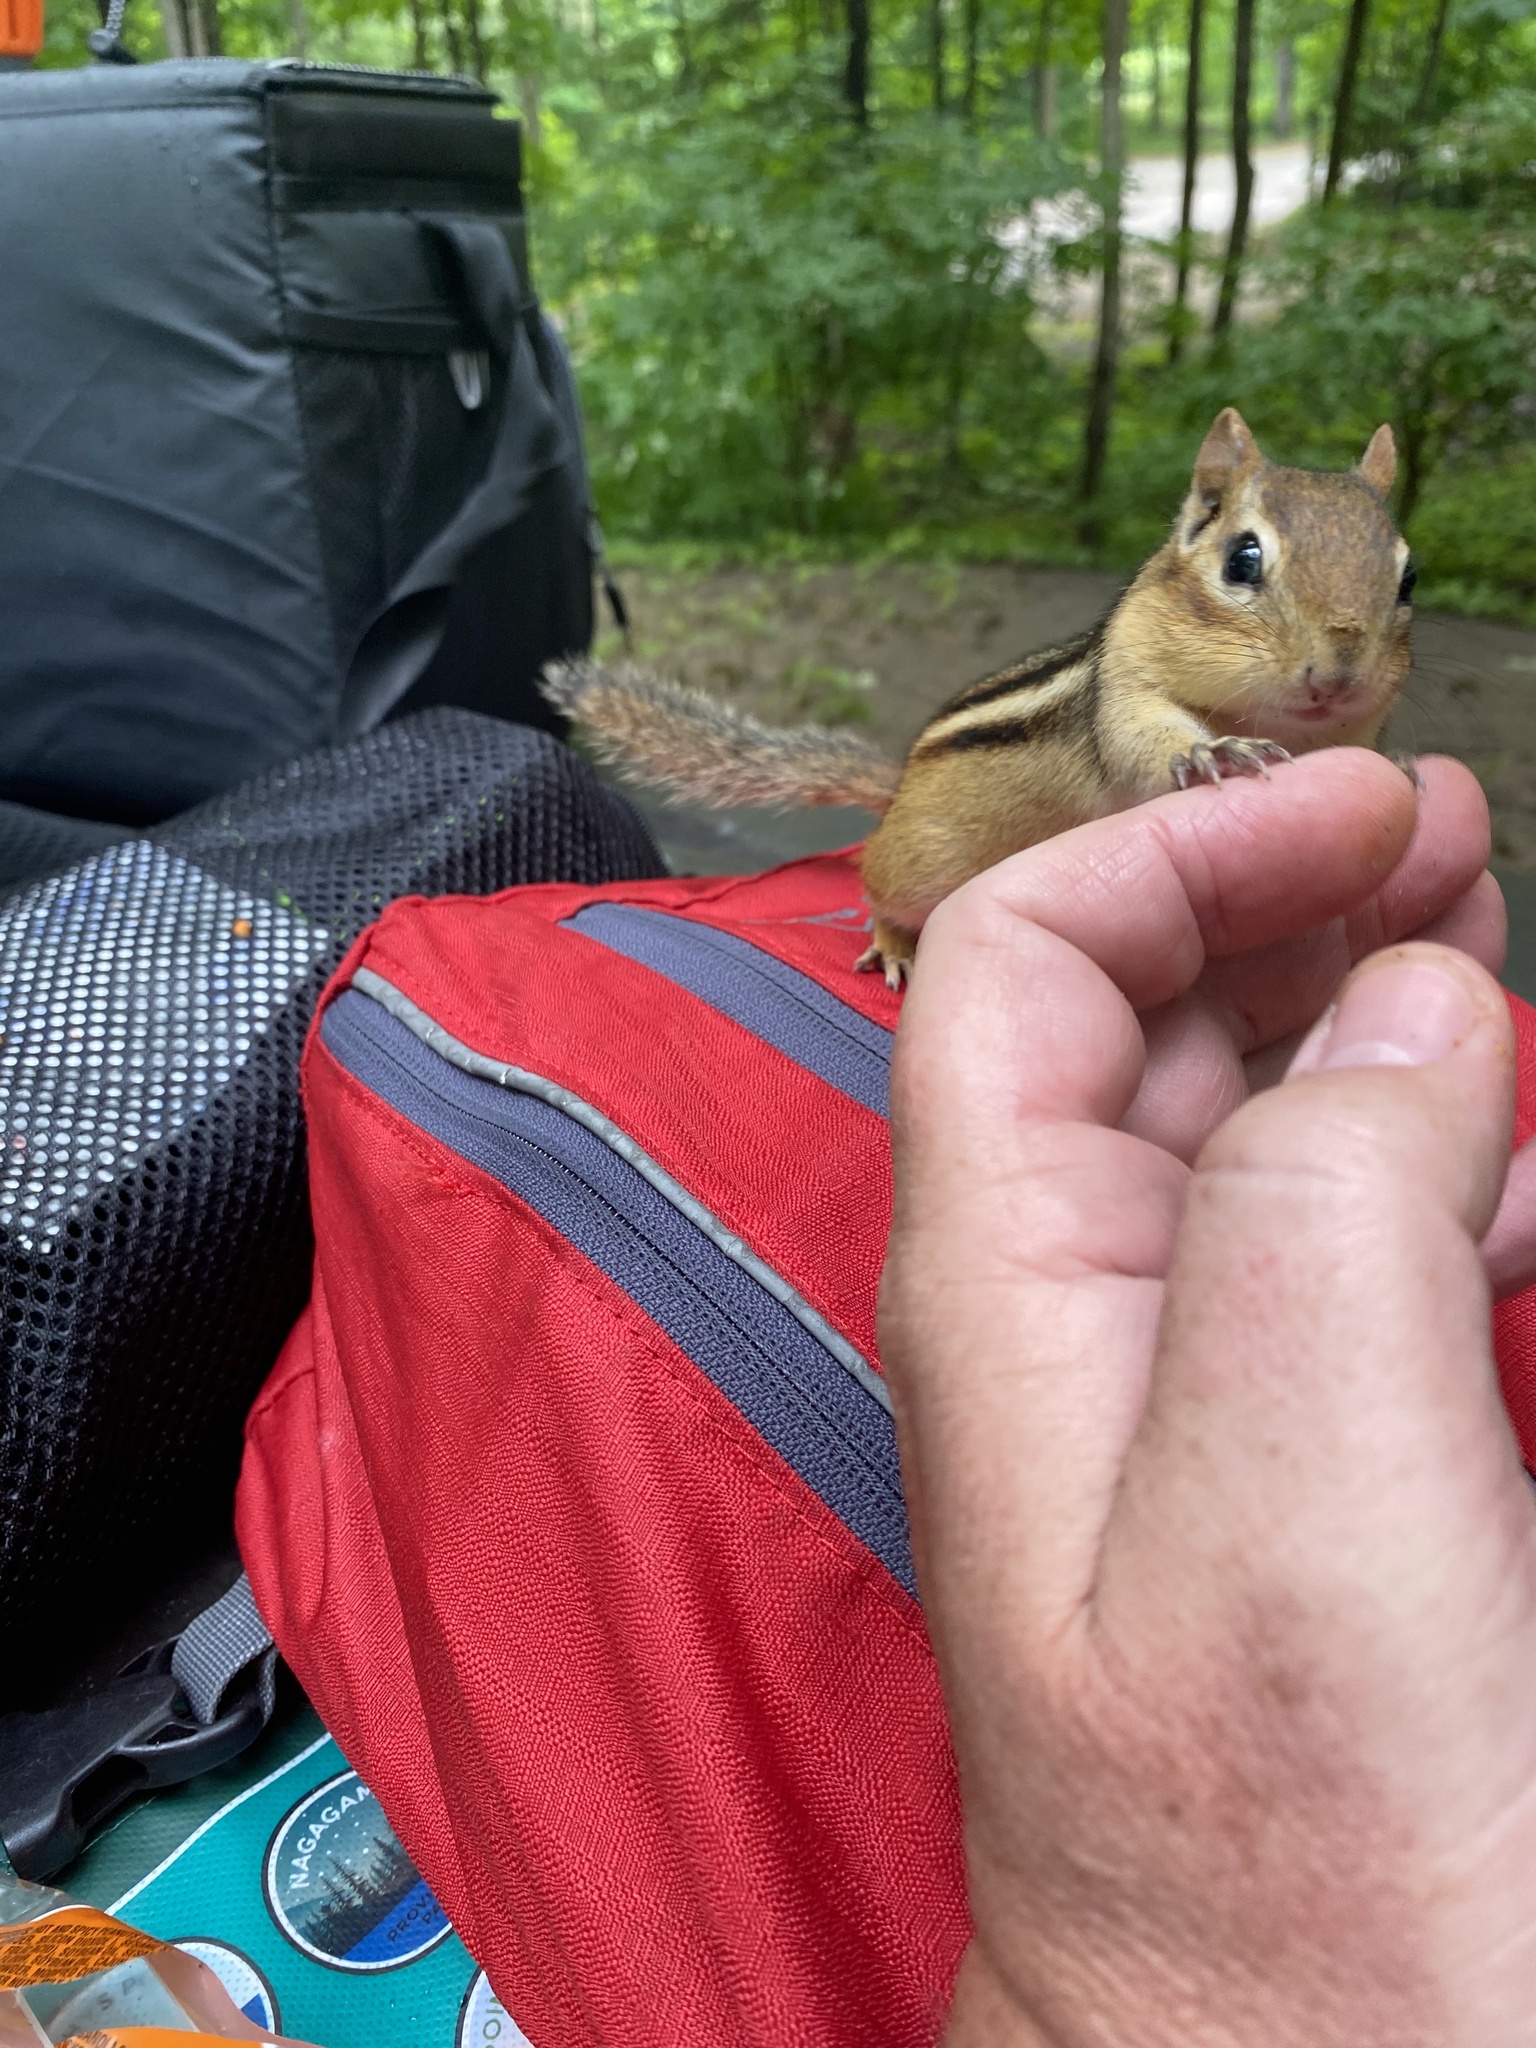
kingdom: Animalia
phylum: Chordata
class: Mammalia
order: Rodentia
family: Sciuridae
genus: Tamias
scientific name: Tamias striatus
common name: Eastern chipmunk
